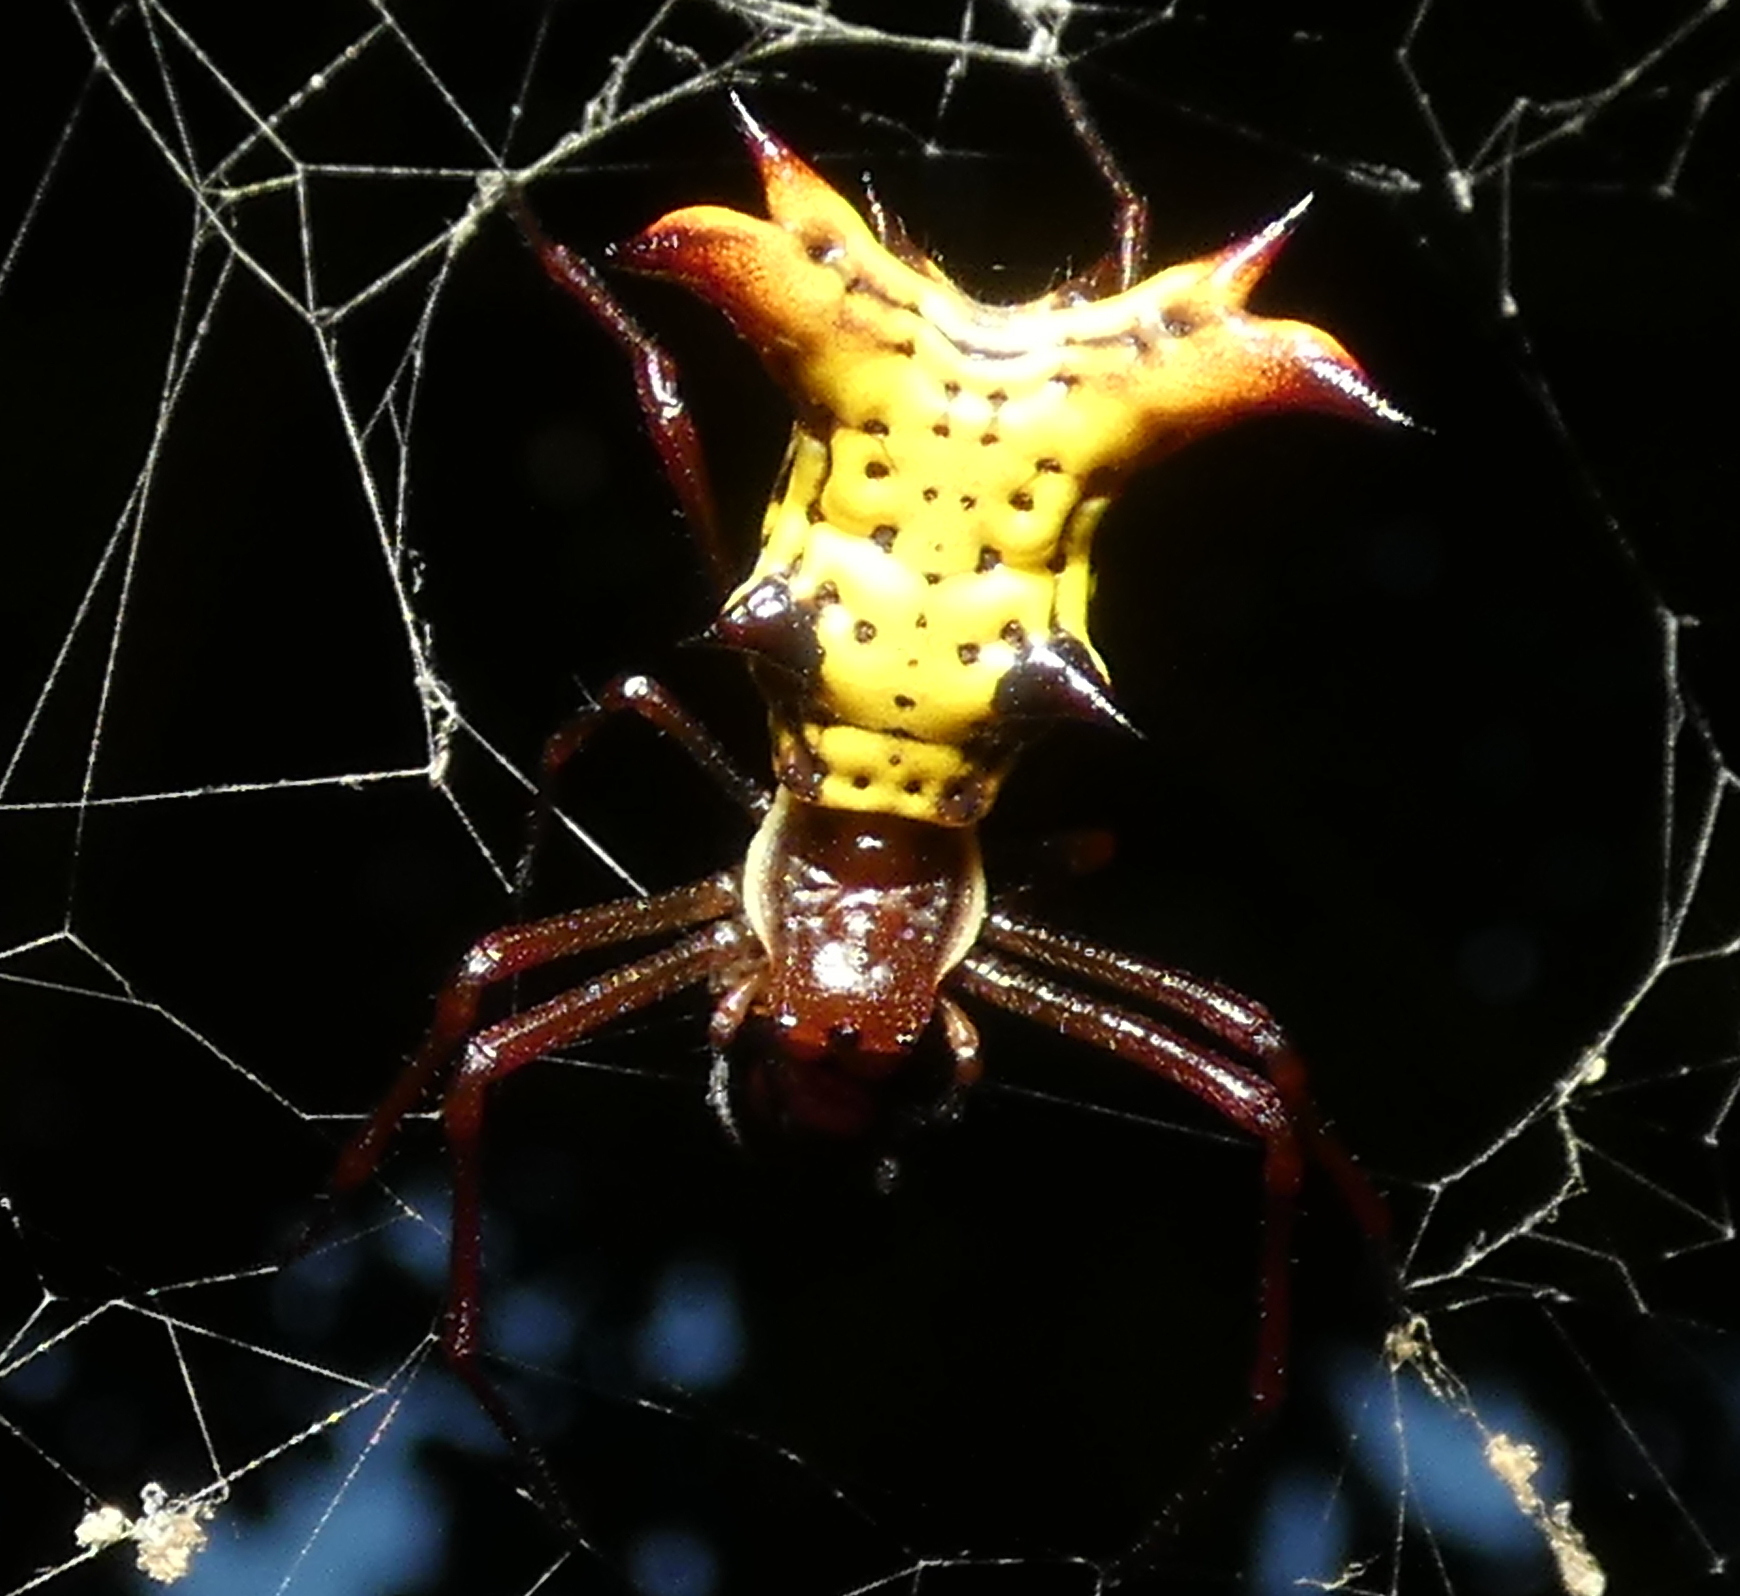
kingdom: Animalia
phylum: Arthropoda
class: Arachnida
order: Araneae
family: Araneidae
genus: Micrathena
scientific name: Micrathena fissispina
